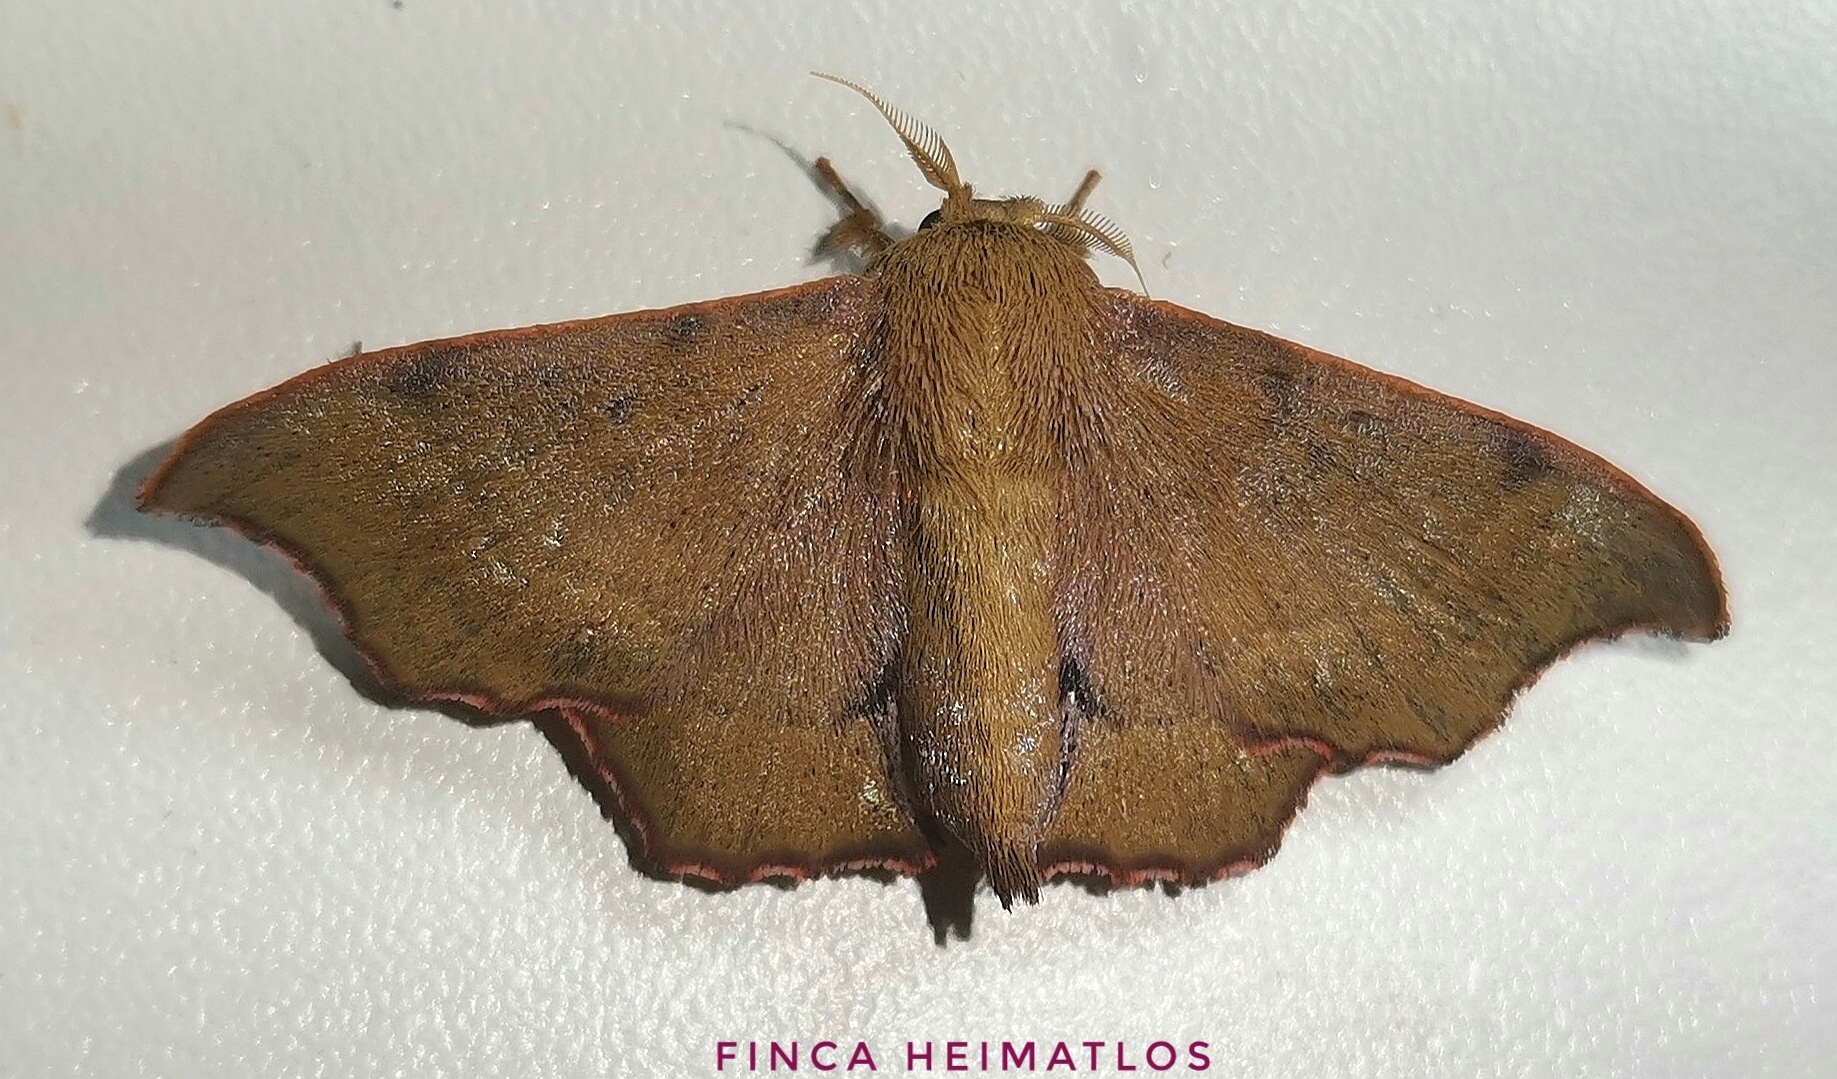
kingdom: Animalia
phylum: Arthropoda
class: Insecta
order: Lepidoptera
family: Mimallonidae
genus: Lacosoma
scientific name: Lacosoma oyapoca
